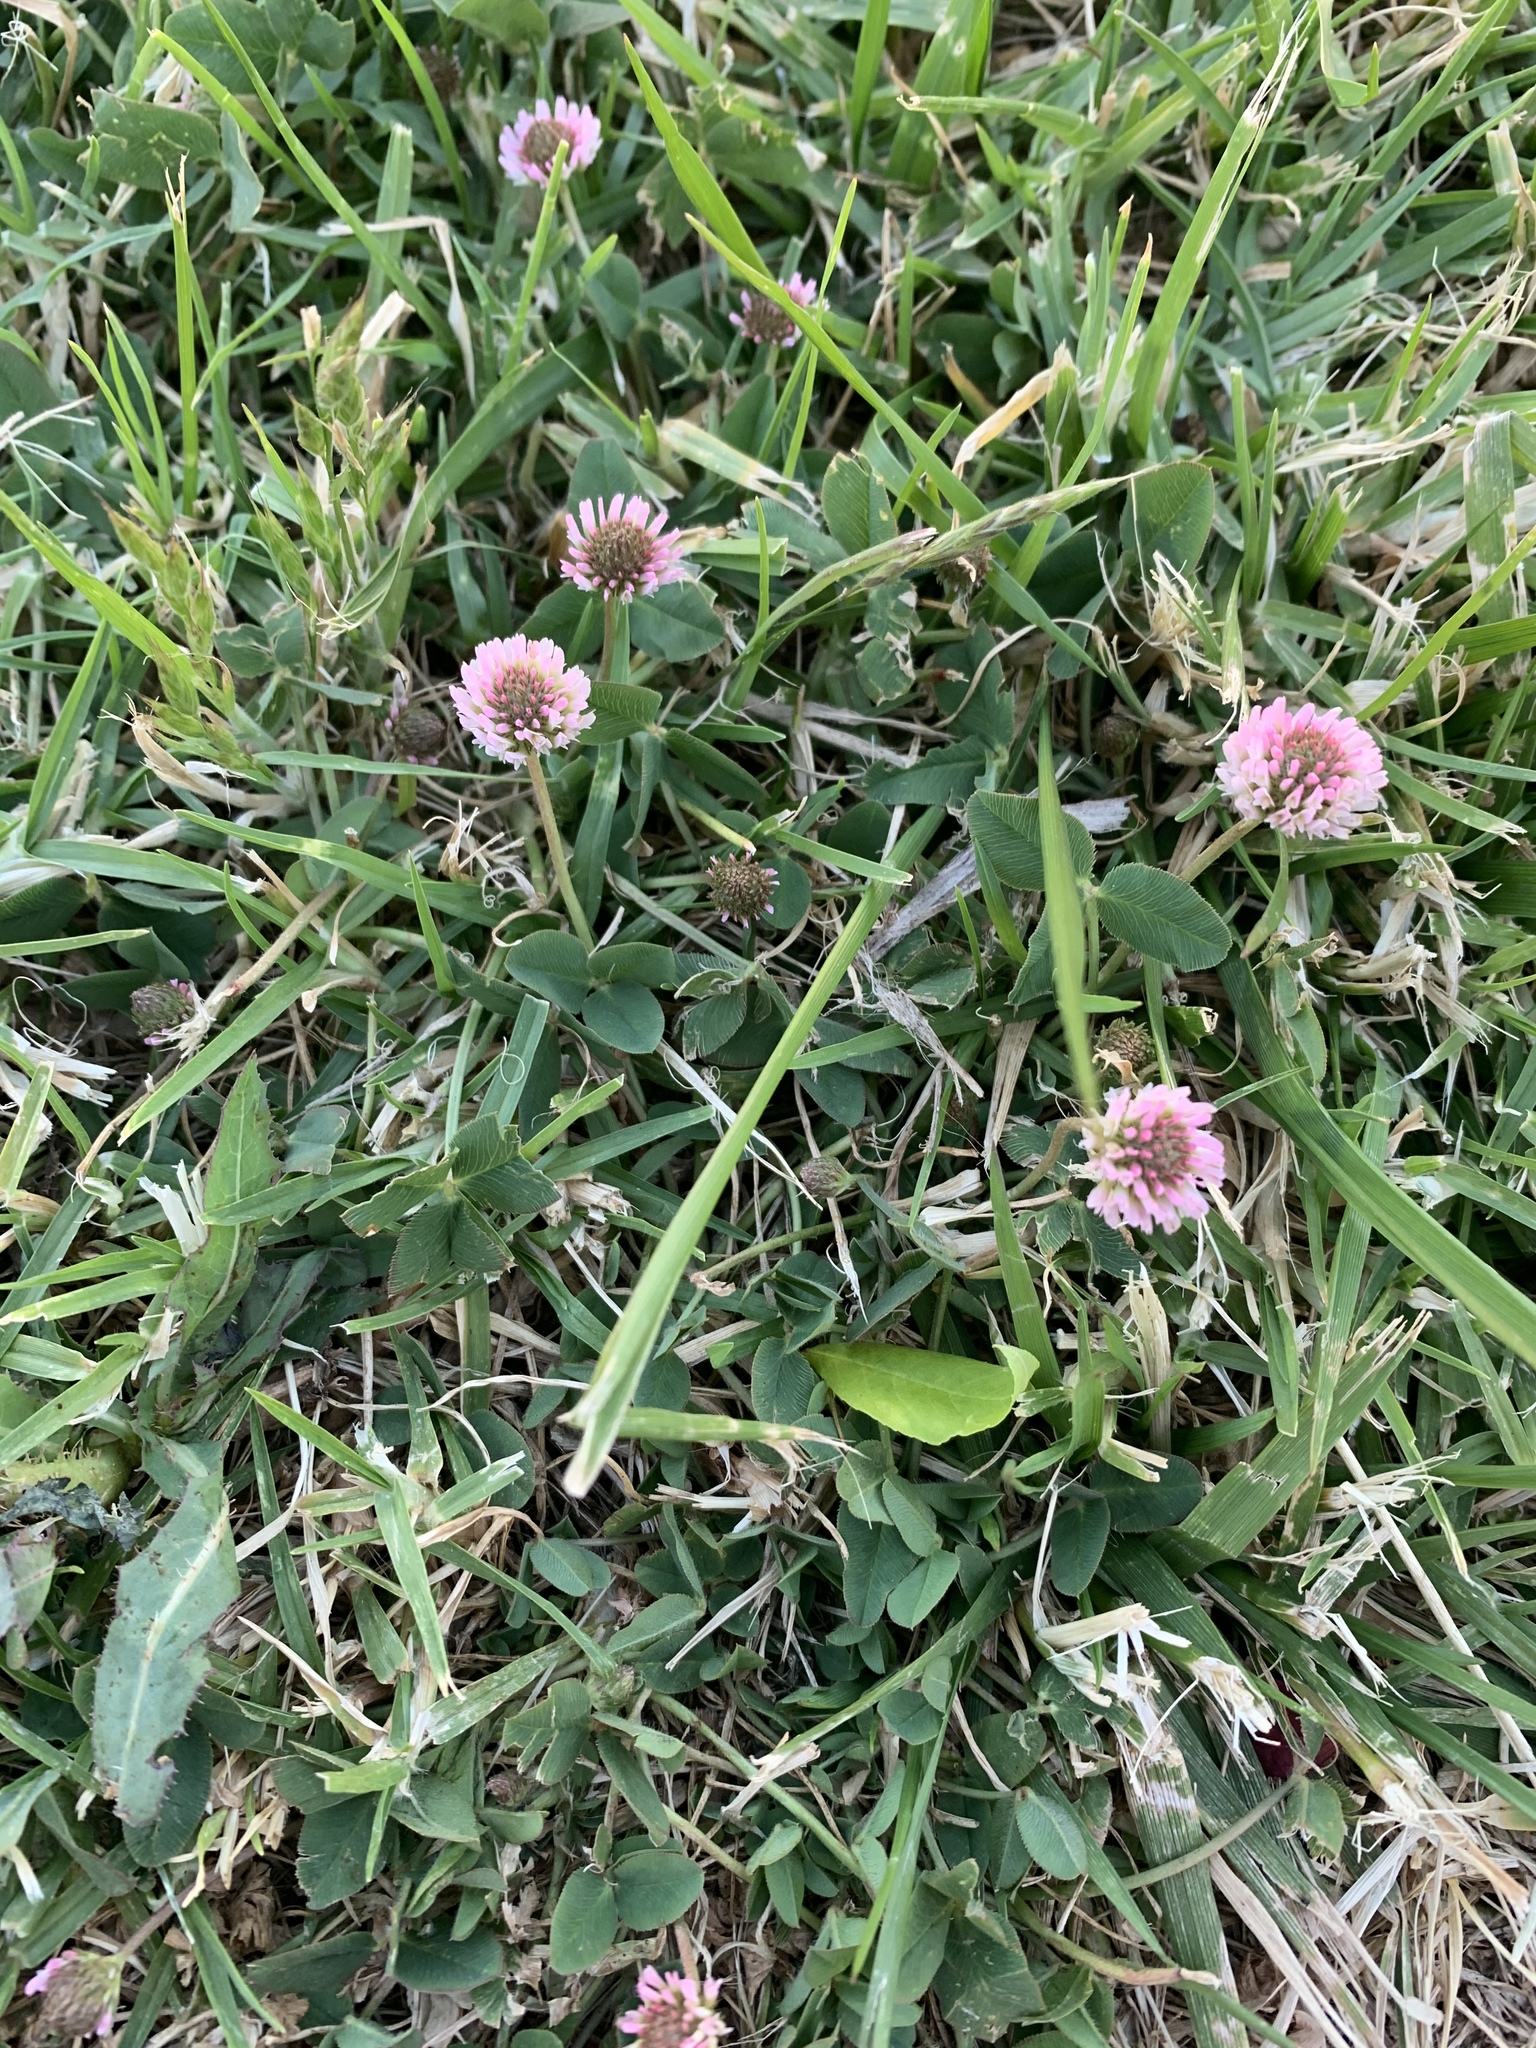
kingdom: Plantae
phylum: Tracheophyta
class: Magnoliopsida
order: Fabales
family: Fabaceae
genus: Trifolium
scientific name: Trifolium repens
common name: White clover
